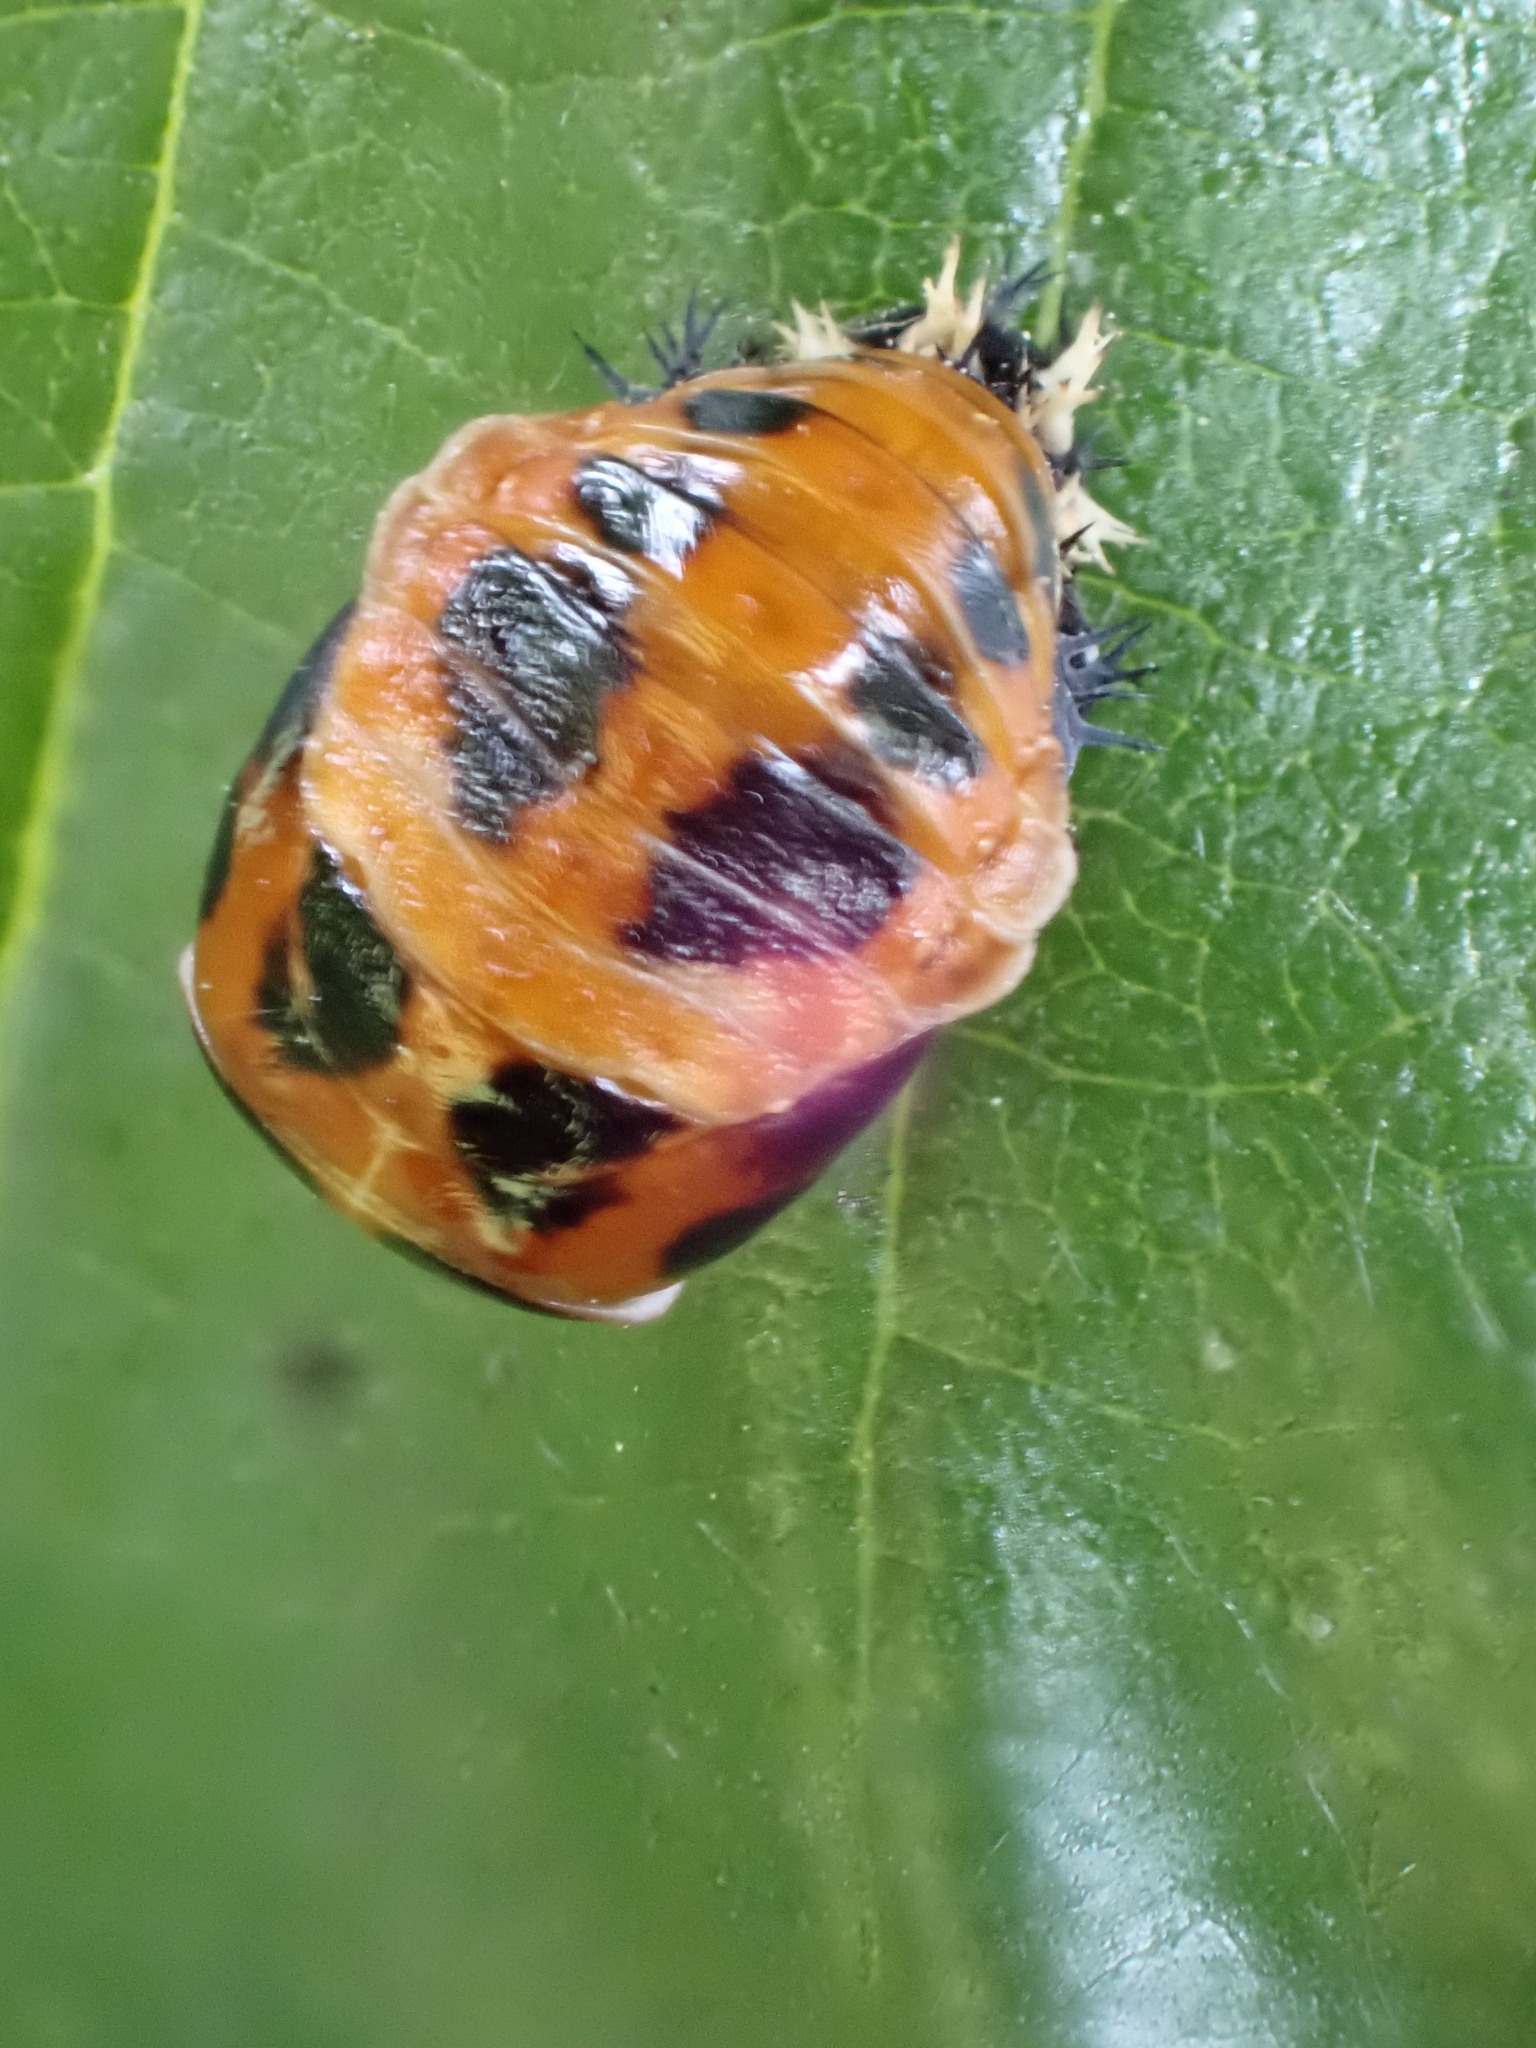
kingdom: Animalia
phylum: Arthropoda
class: Insecta
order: Coleoptera
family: Coccinellidae
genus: Harmonia
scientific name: Harmonia axyridis
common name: Harlequin ladybird
